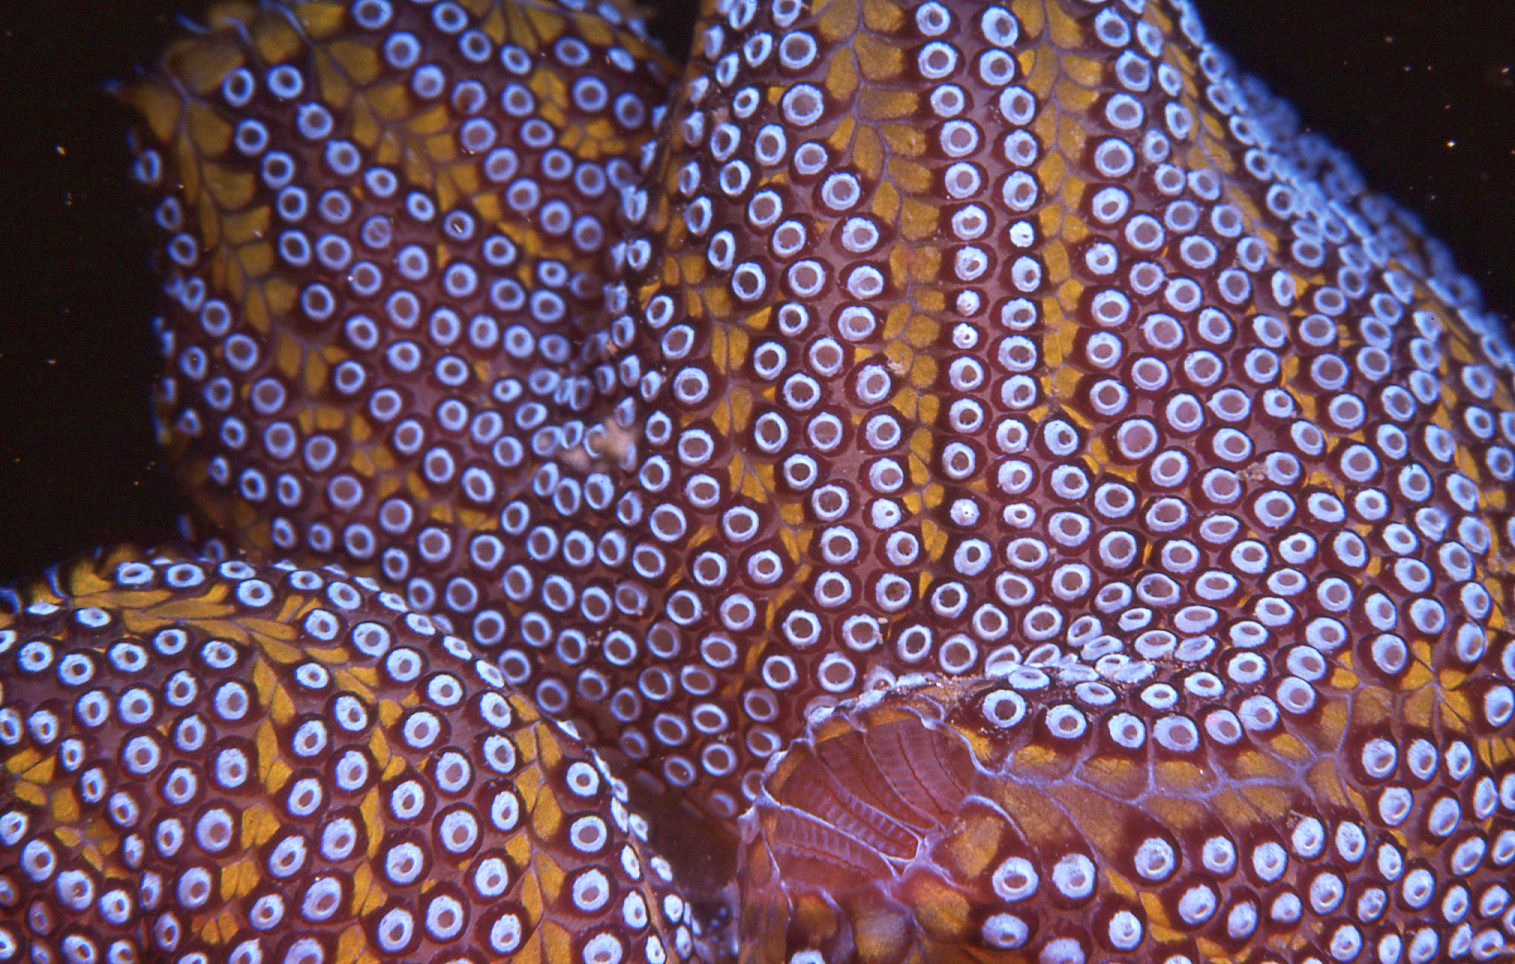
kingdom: Animalia
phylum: Chordata
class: Ascidiacea
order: Stolidobranchia
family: Styelidae
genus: Botrylloides
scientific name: Botrylloides magnicoecus
